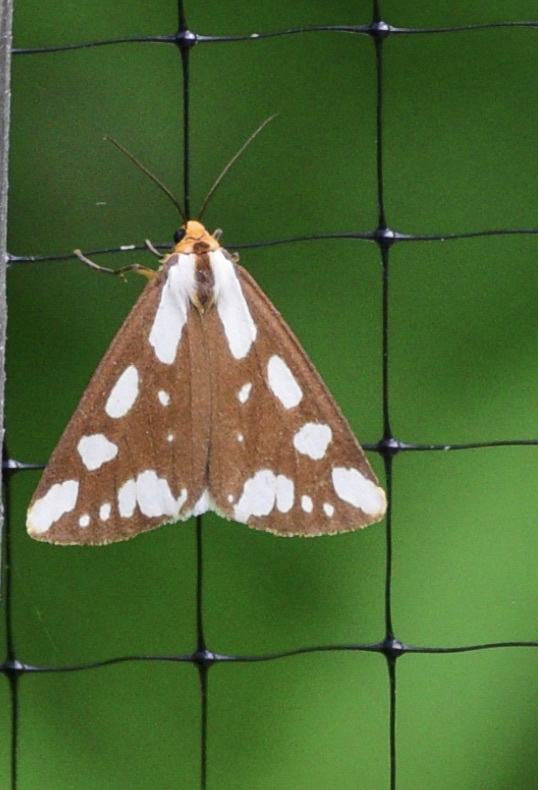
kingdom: Animalia
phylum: Arthropoda
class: Insecta
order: Lepidoptera
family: Erebidae
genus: Haploa
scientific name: Haploa confusa
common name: Confused haploa moth
